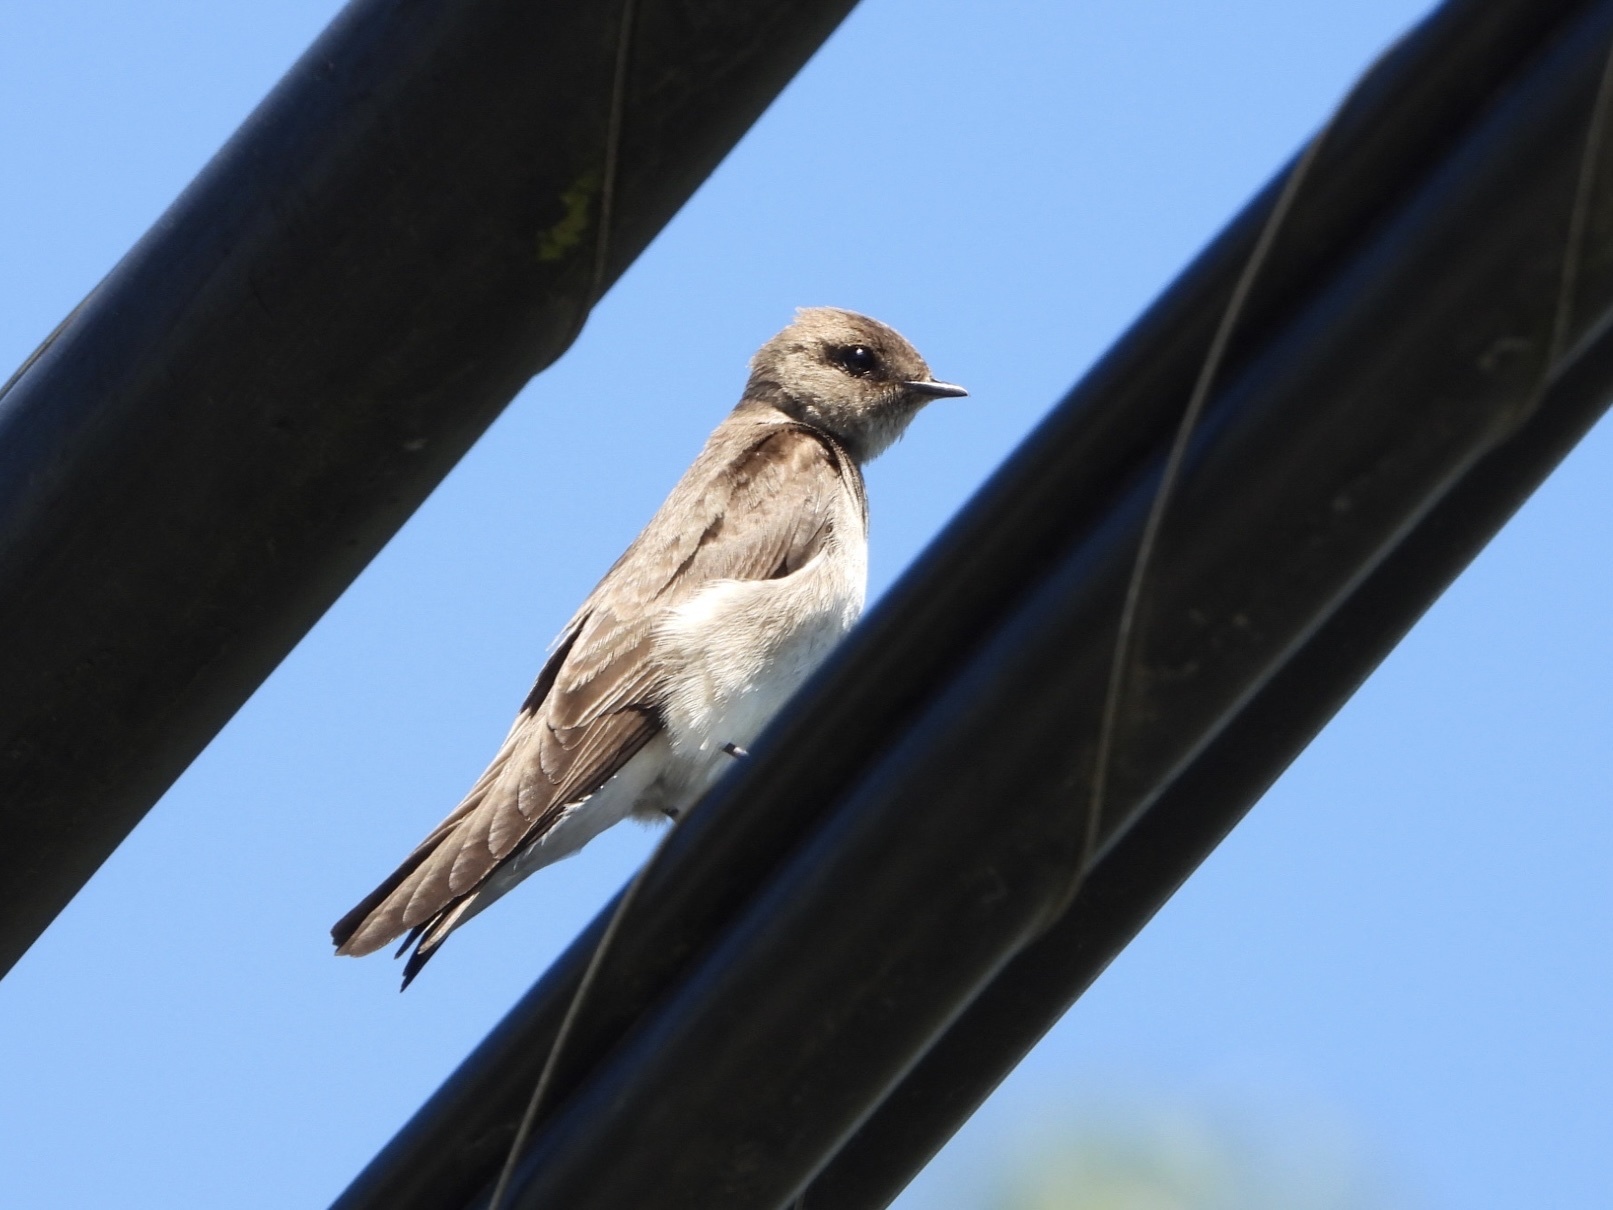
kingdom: Animalia
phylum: Chordata
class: Aves
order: Passeriformes
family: Hirundinidae
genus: Stelgidopteryx
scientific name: Stelgidopteryx serripennis
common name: Northern rough-winged swallow
